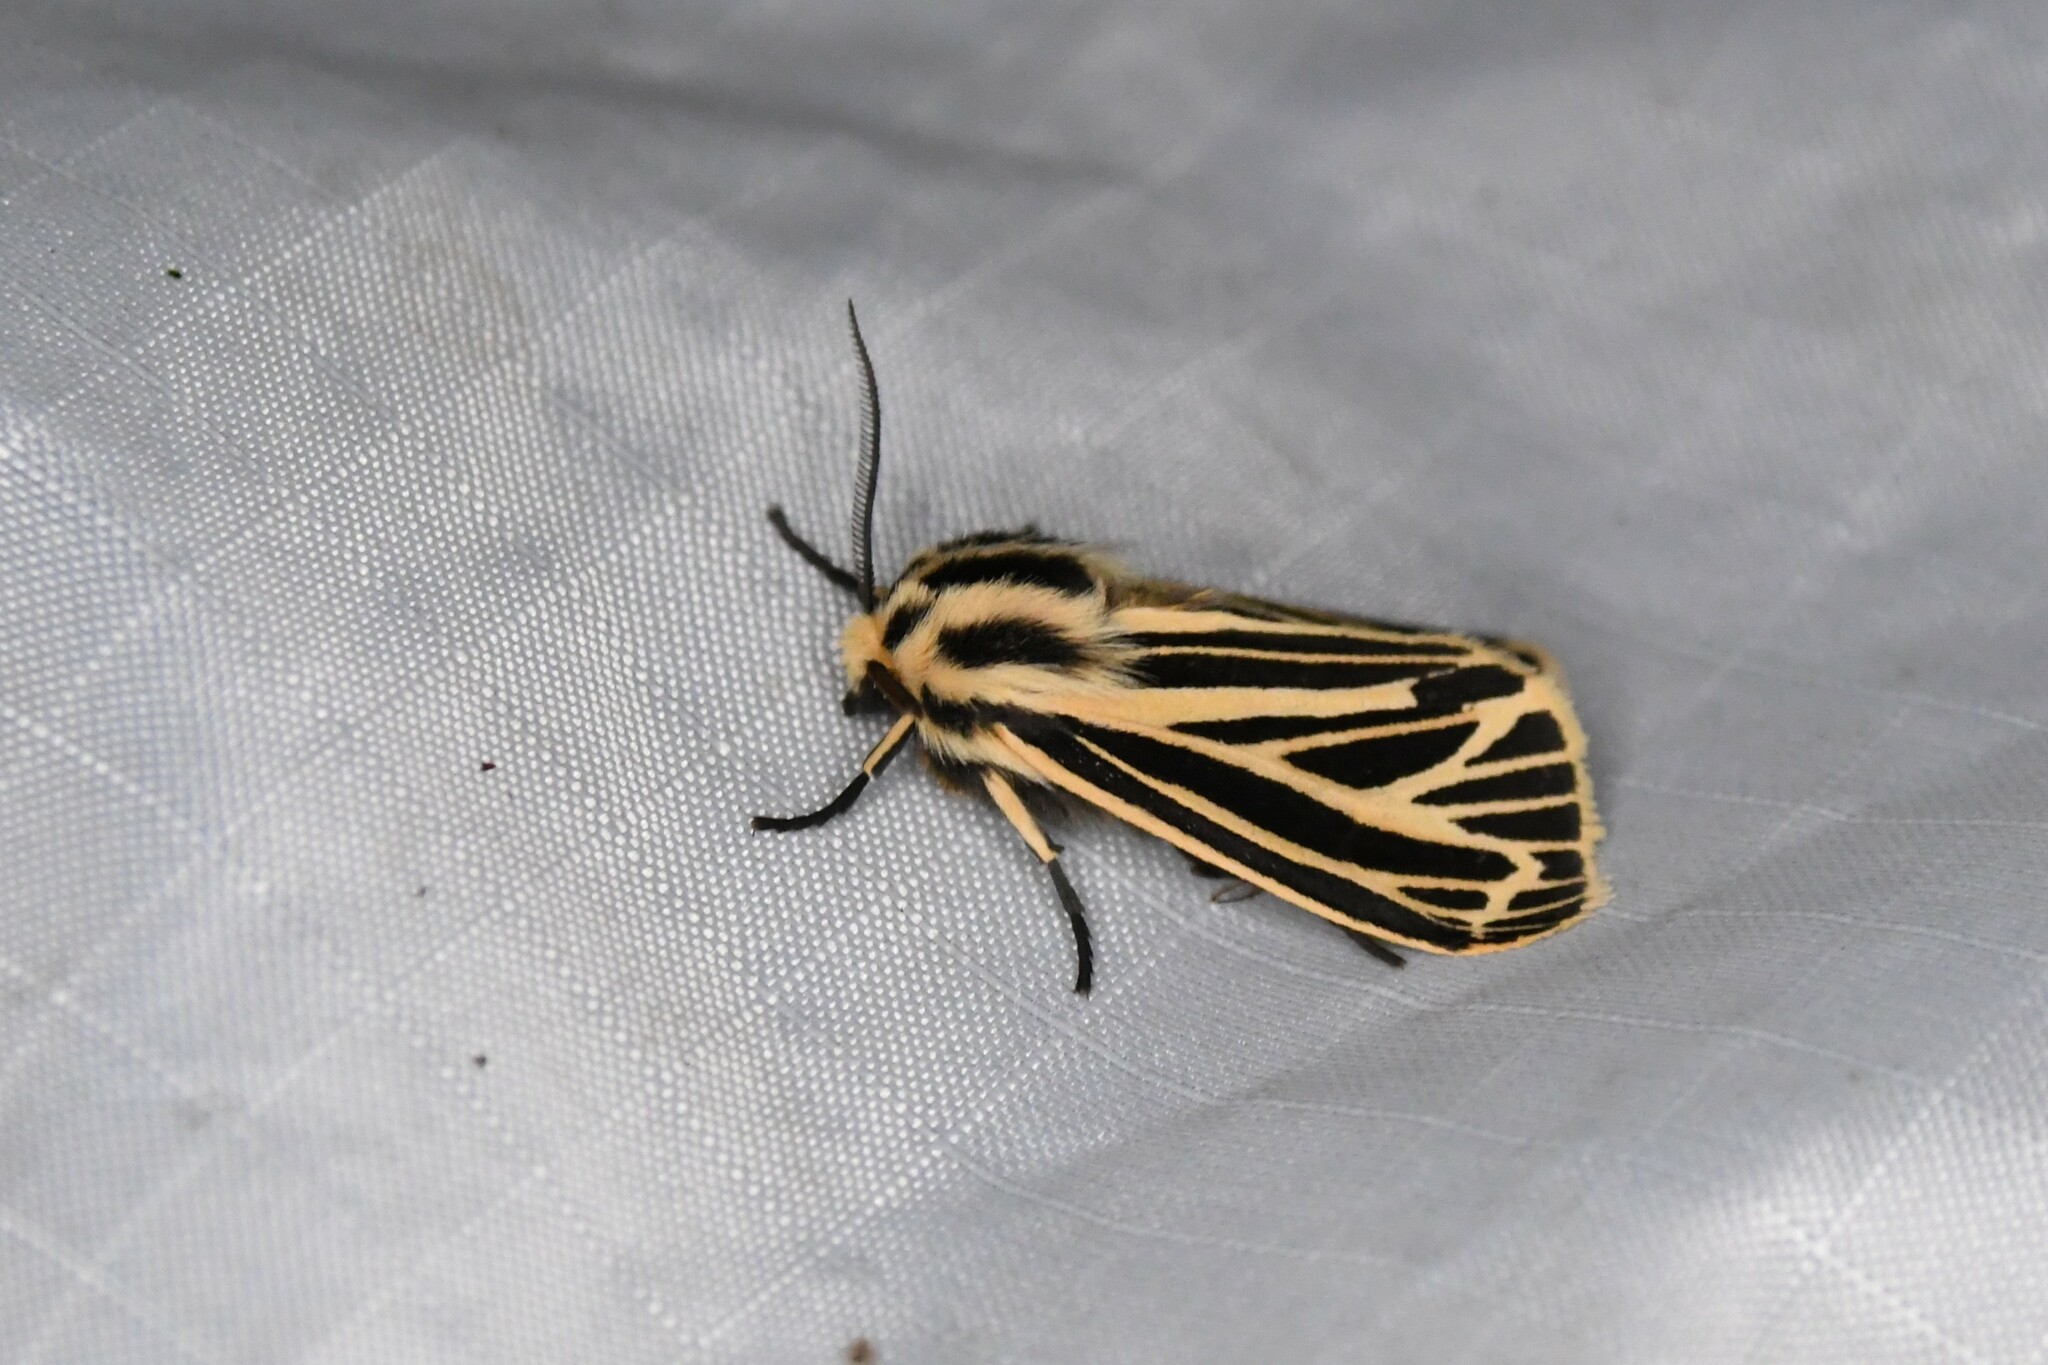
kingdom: Animalia
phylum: Arthropoda
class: Insecta
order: Lepidoptera
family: Erebidae
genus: Grammia
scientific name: Grammia virguncula
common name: Little tiger moth
